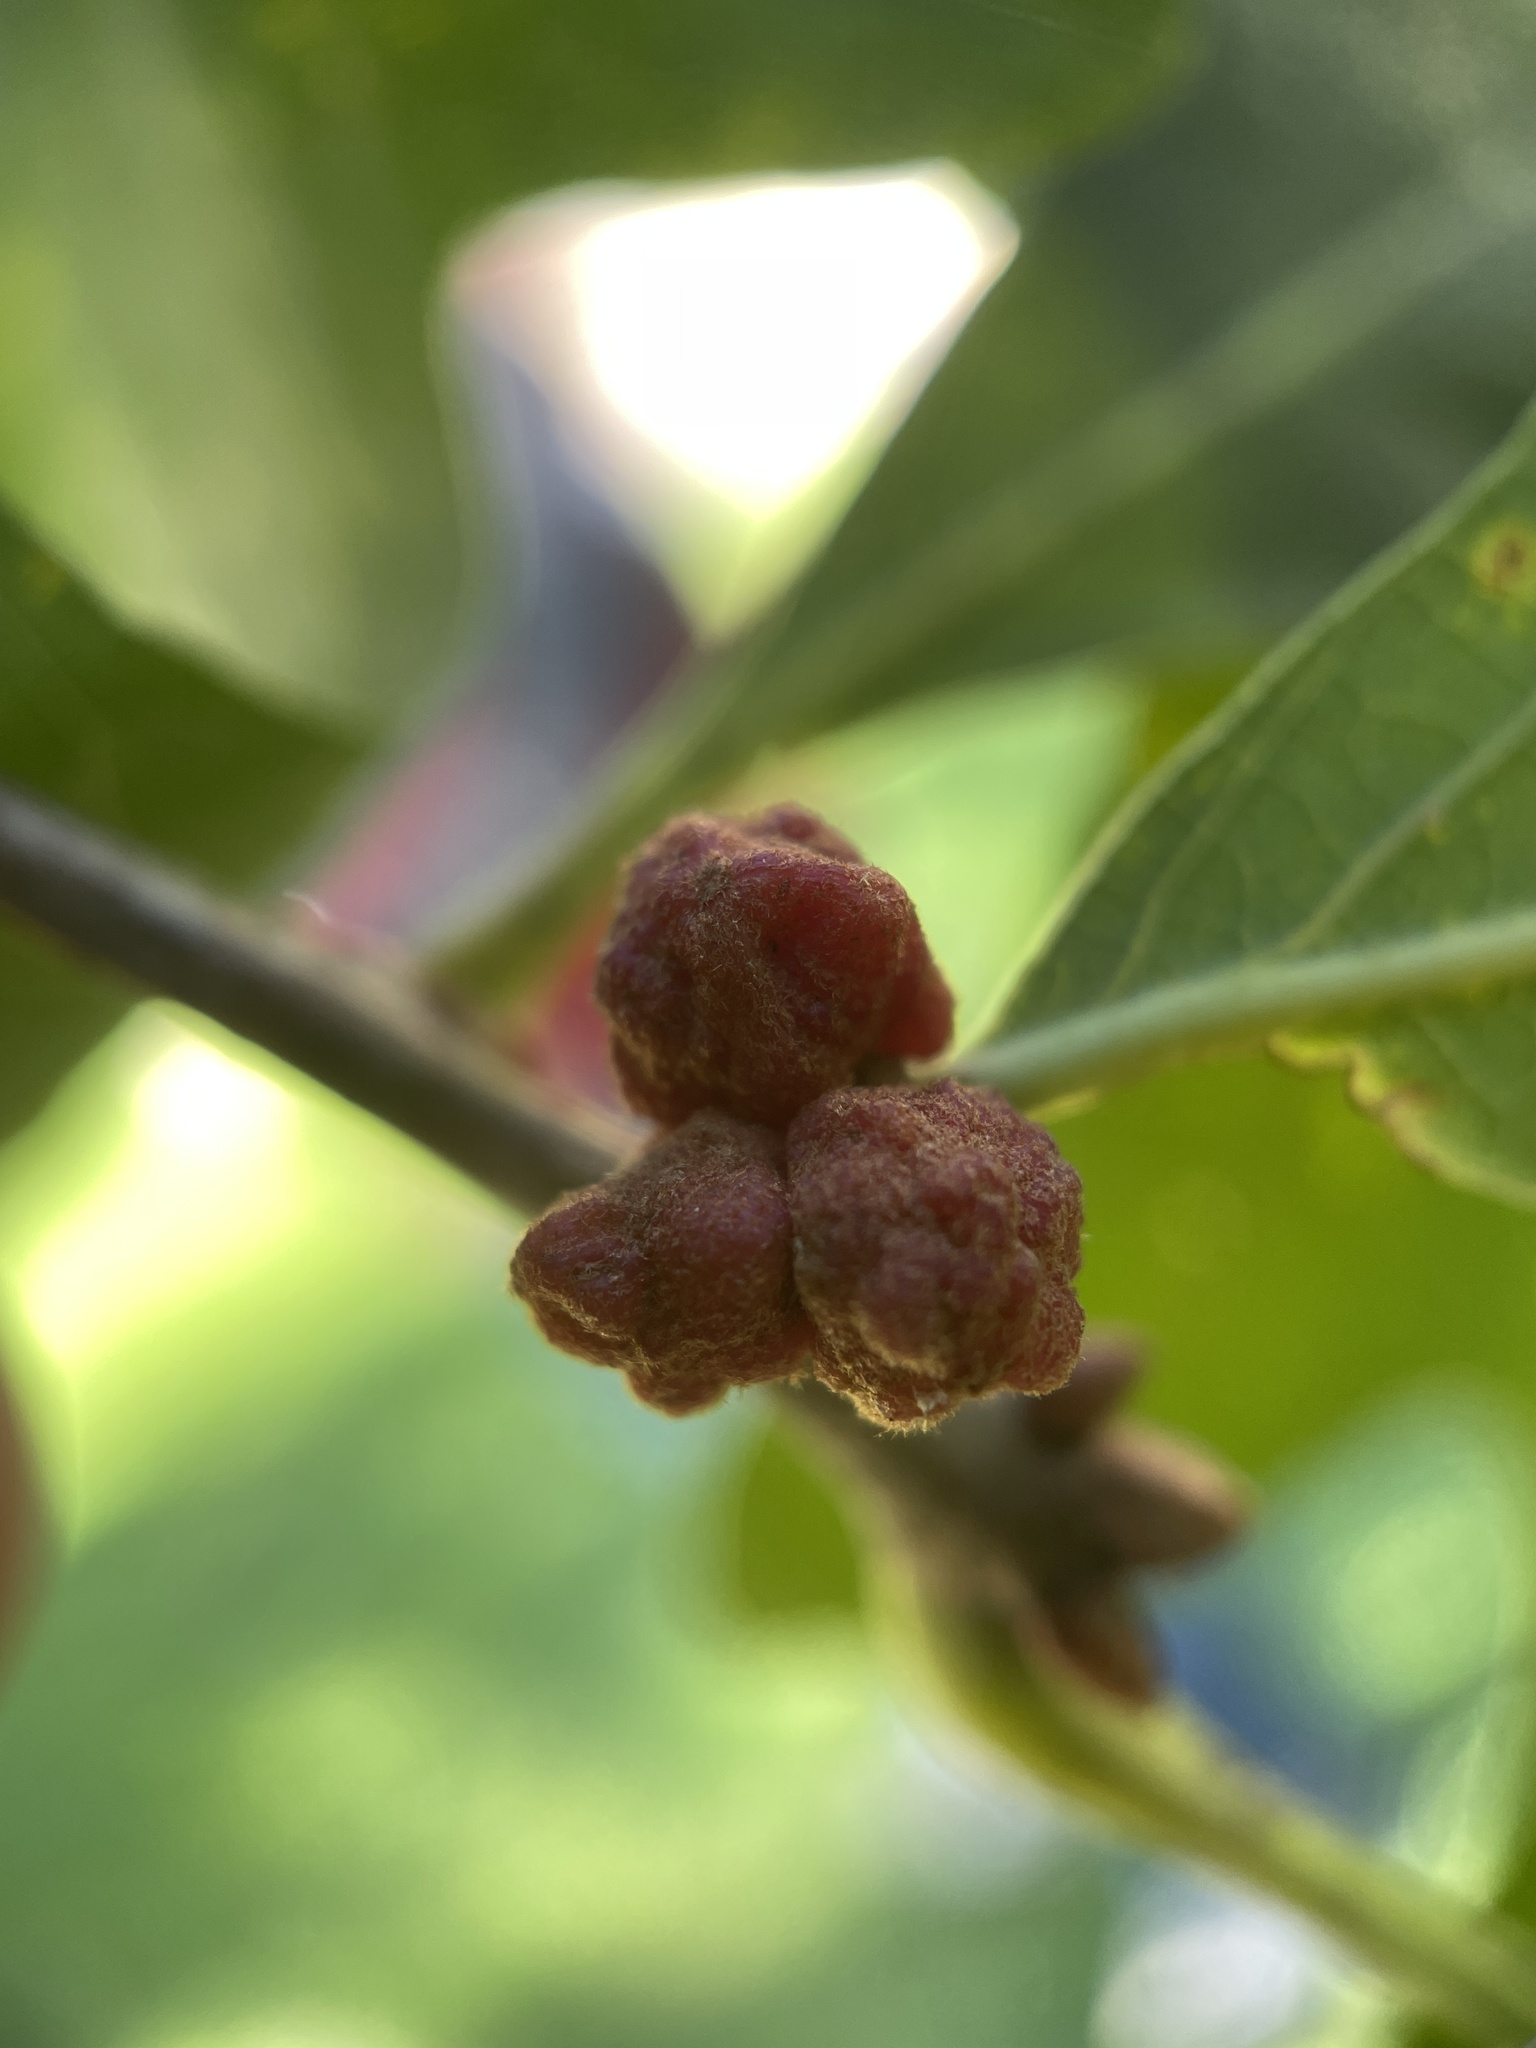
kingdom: Animalia
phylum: Arthropoda
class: Insecta
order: Hymenoptera
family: Cynipidae
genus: Andricus
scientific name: Andricus
